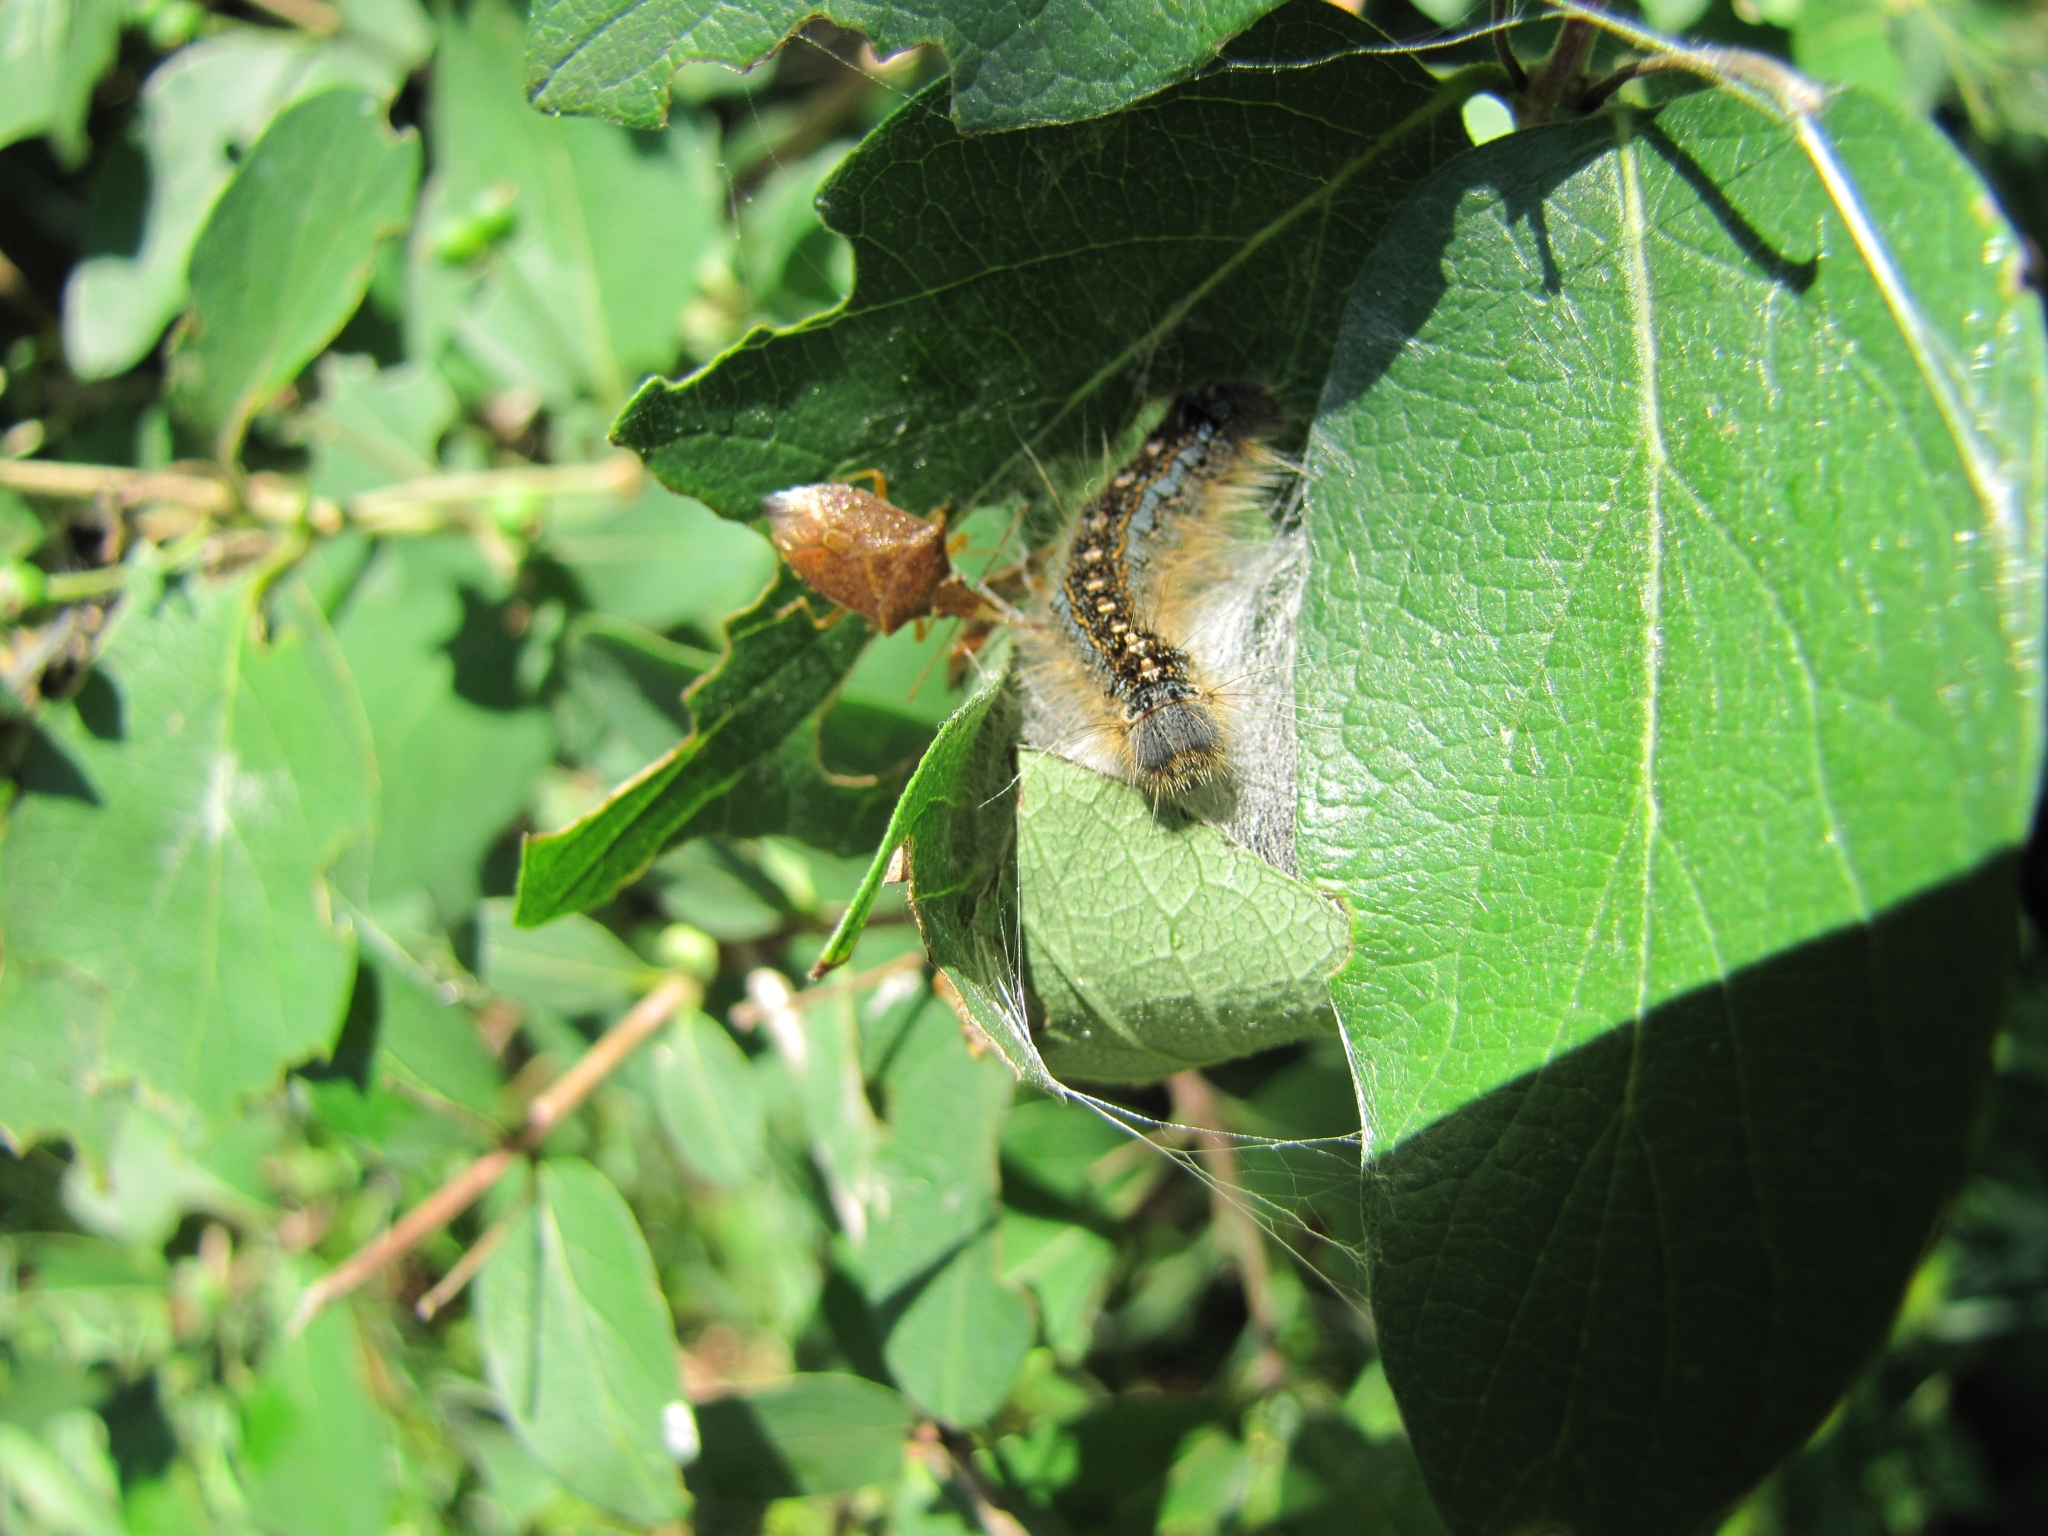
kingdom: Animalia
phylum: Arthropoda
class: Insecta
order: Lepidoptera
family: Lasiocampidae
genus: Malacosoma
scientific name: Malacosoma disstria
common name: Forest tent caterpillar
